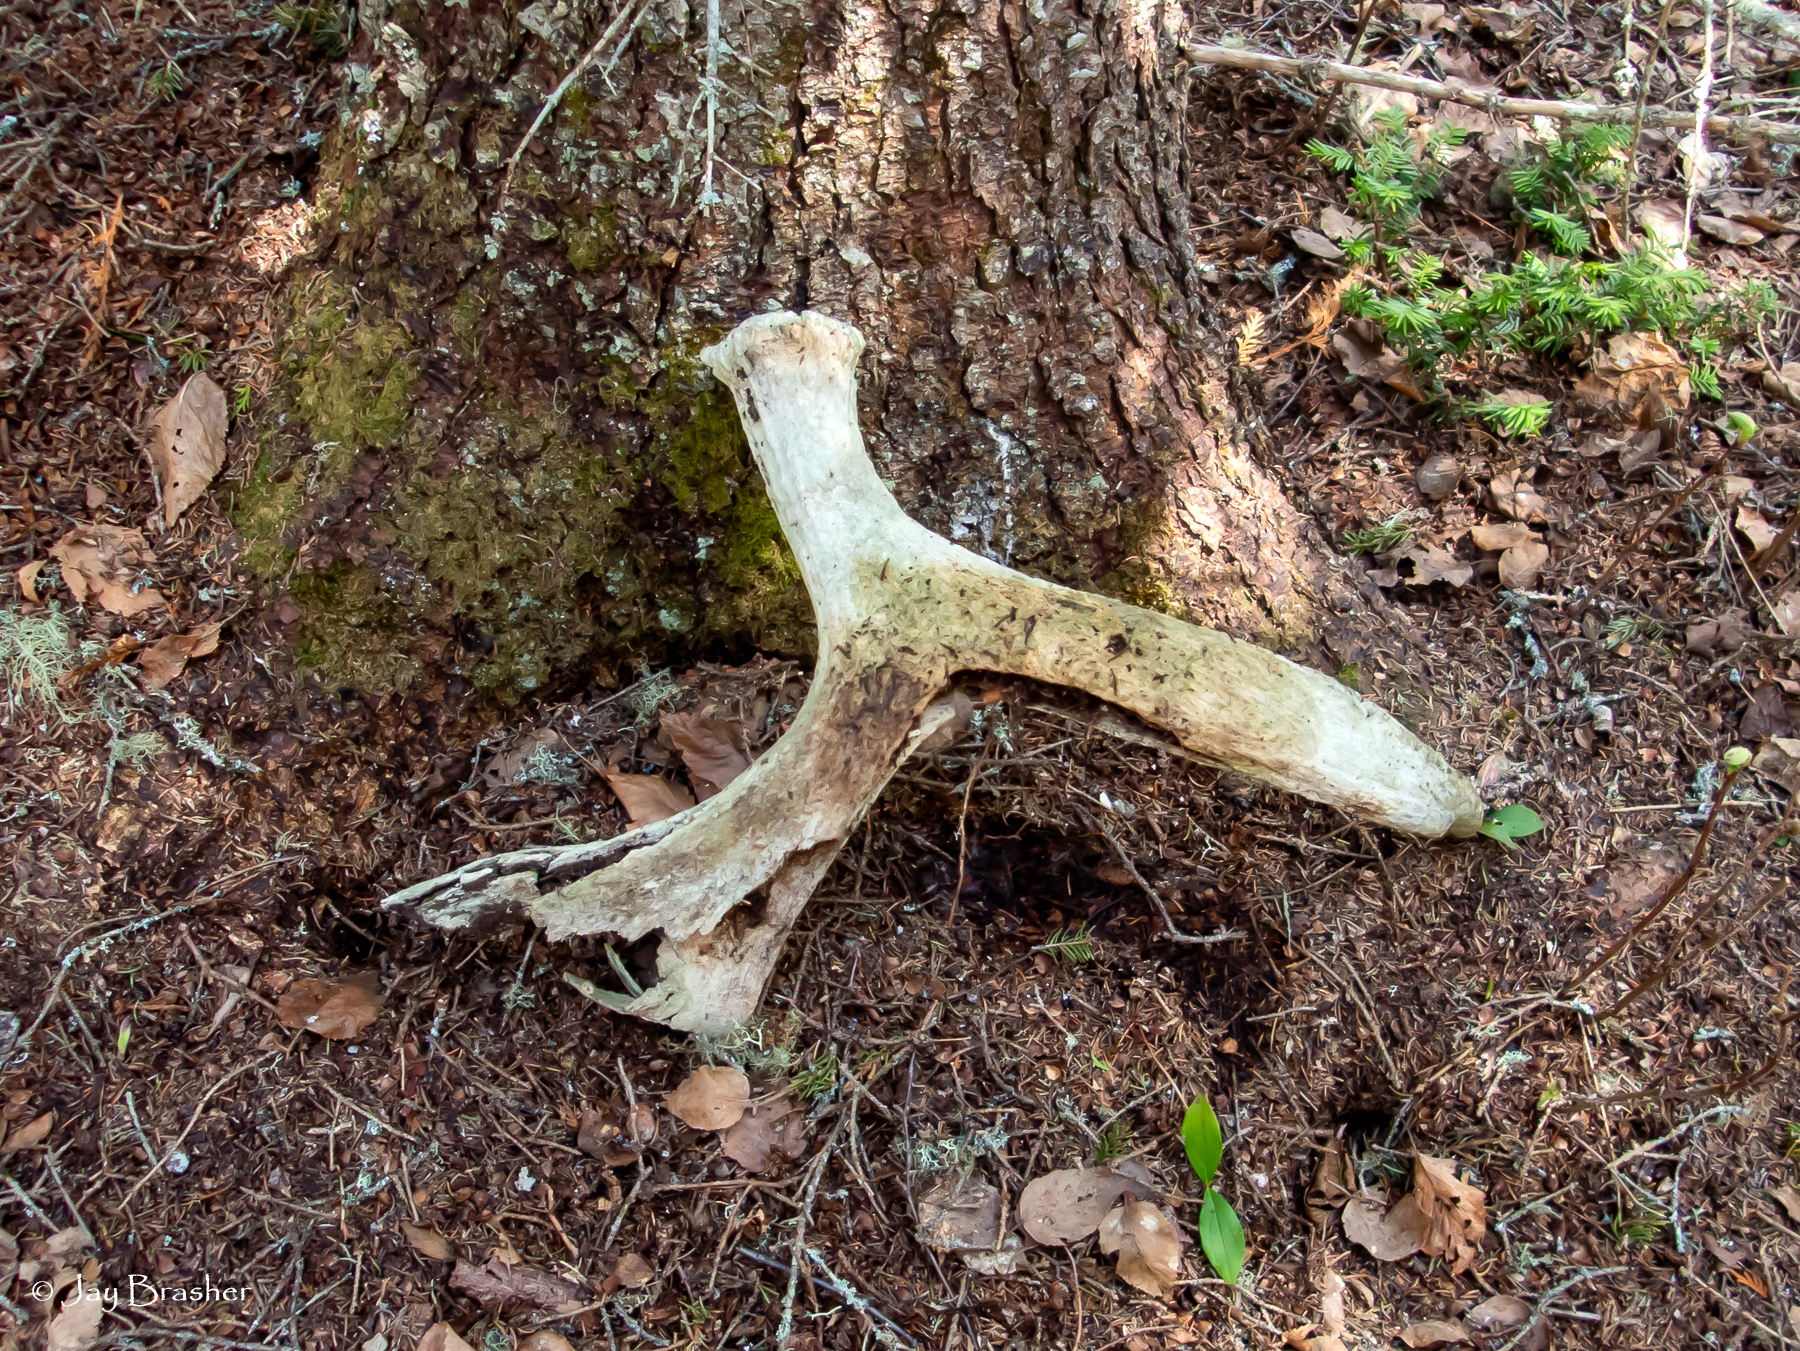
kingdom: Animalia
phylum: Chordata
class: Mammalia
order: Artiodactyla
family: Cervidae
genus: Alces
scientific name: Alces americanus
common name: Moose
